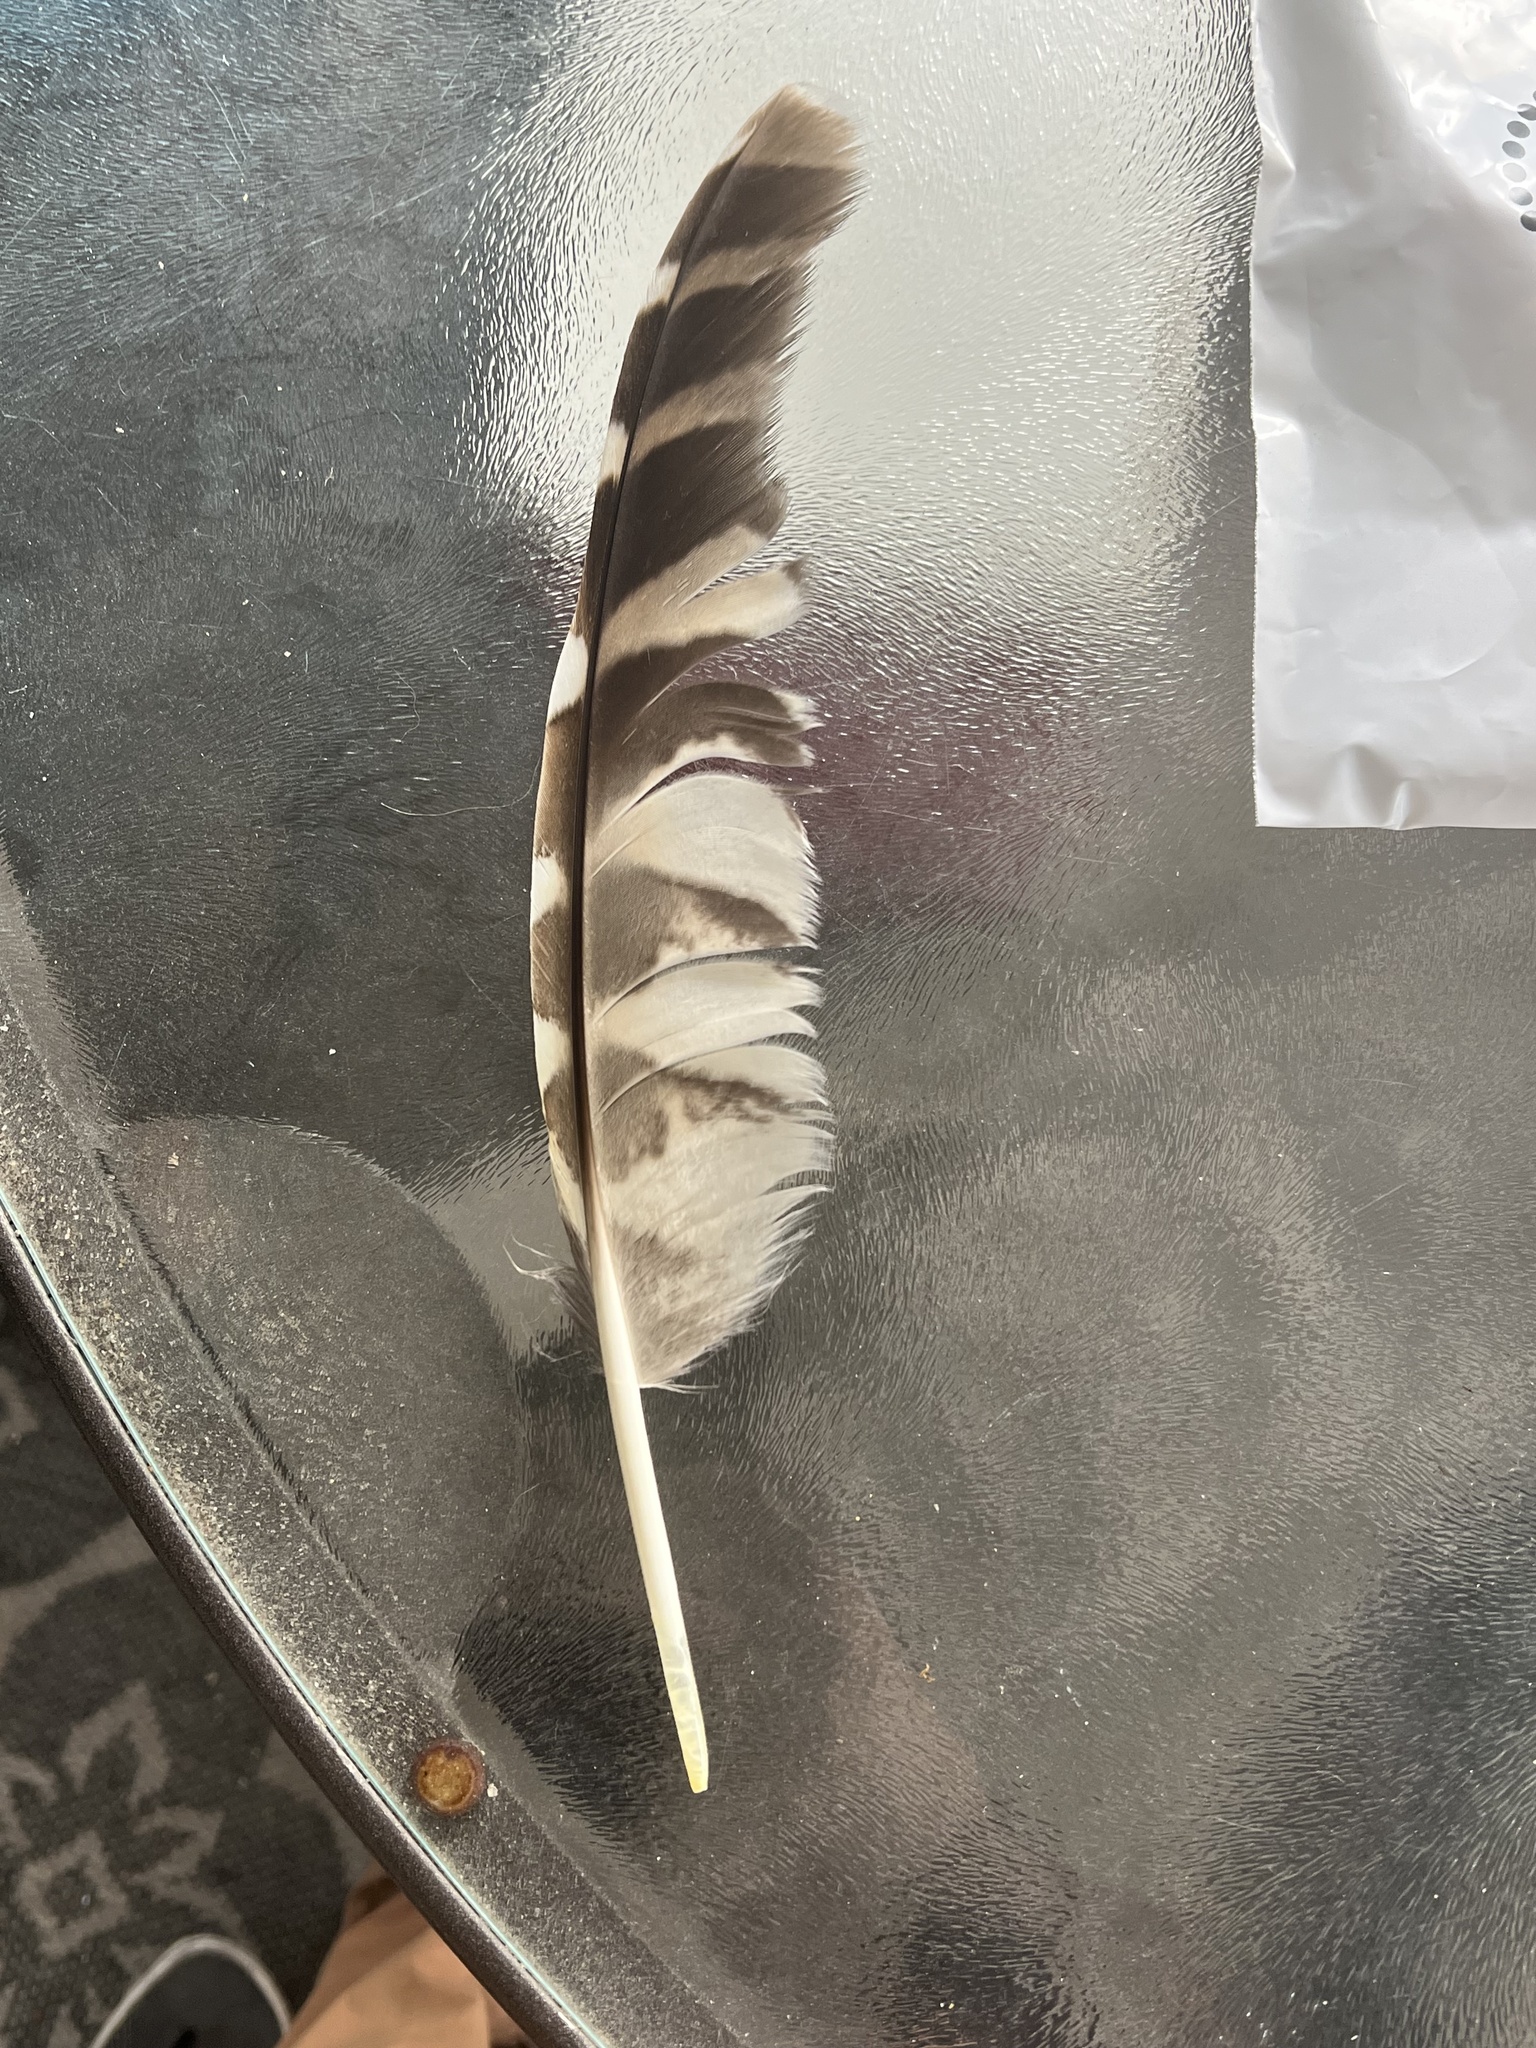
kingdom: Animalia
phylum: Chordata
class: Aves
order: Strigiformes
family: Strigidae
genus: Strix
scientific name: Strix varia
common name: Barred owl
